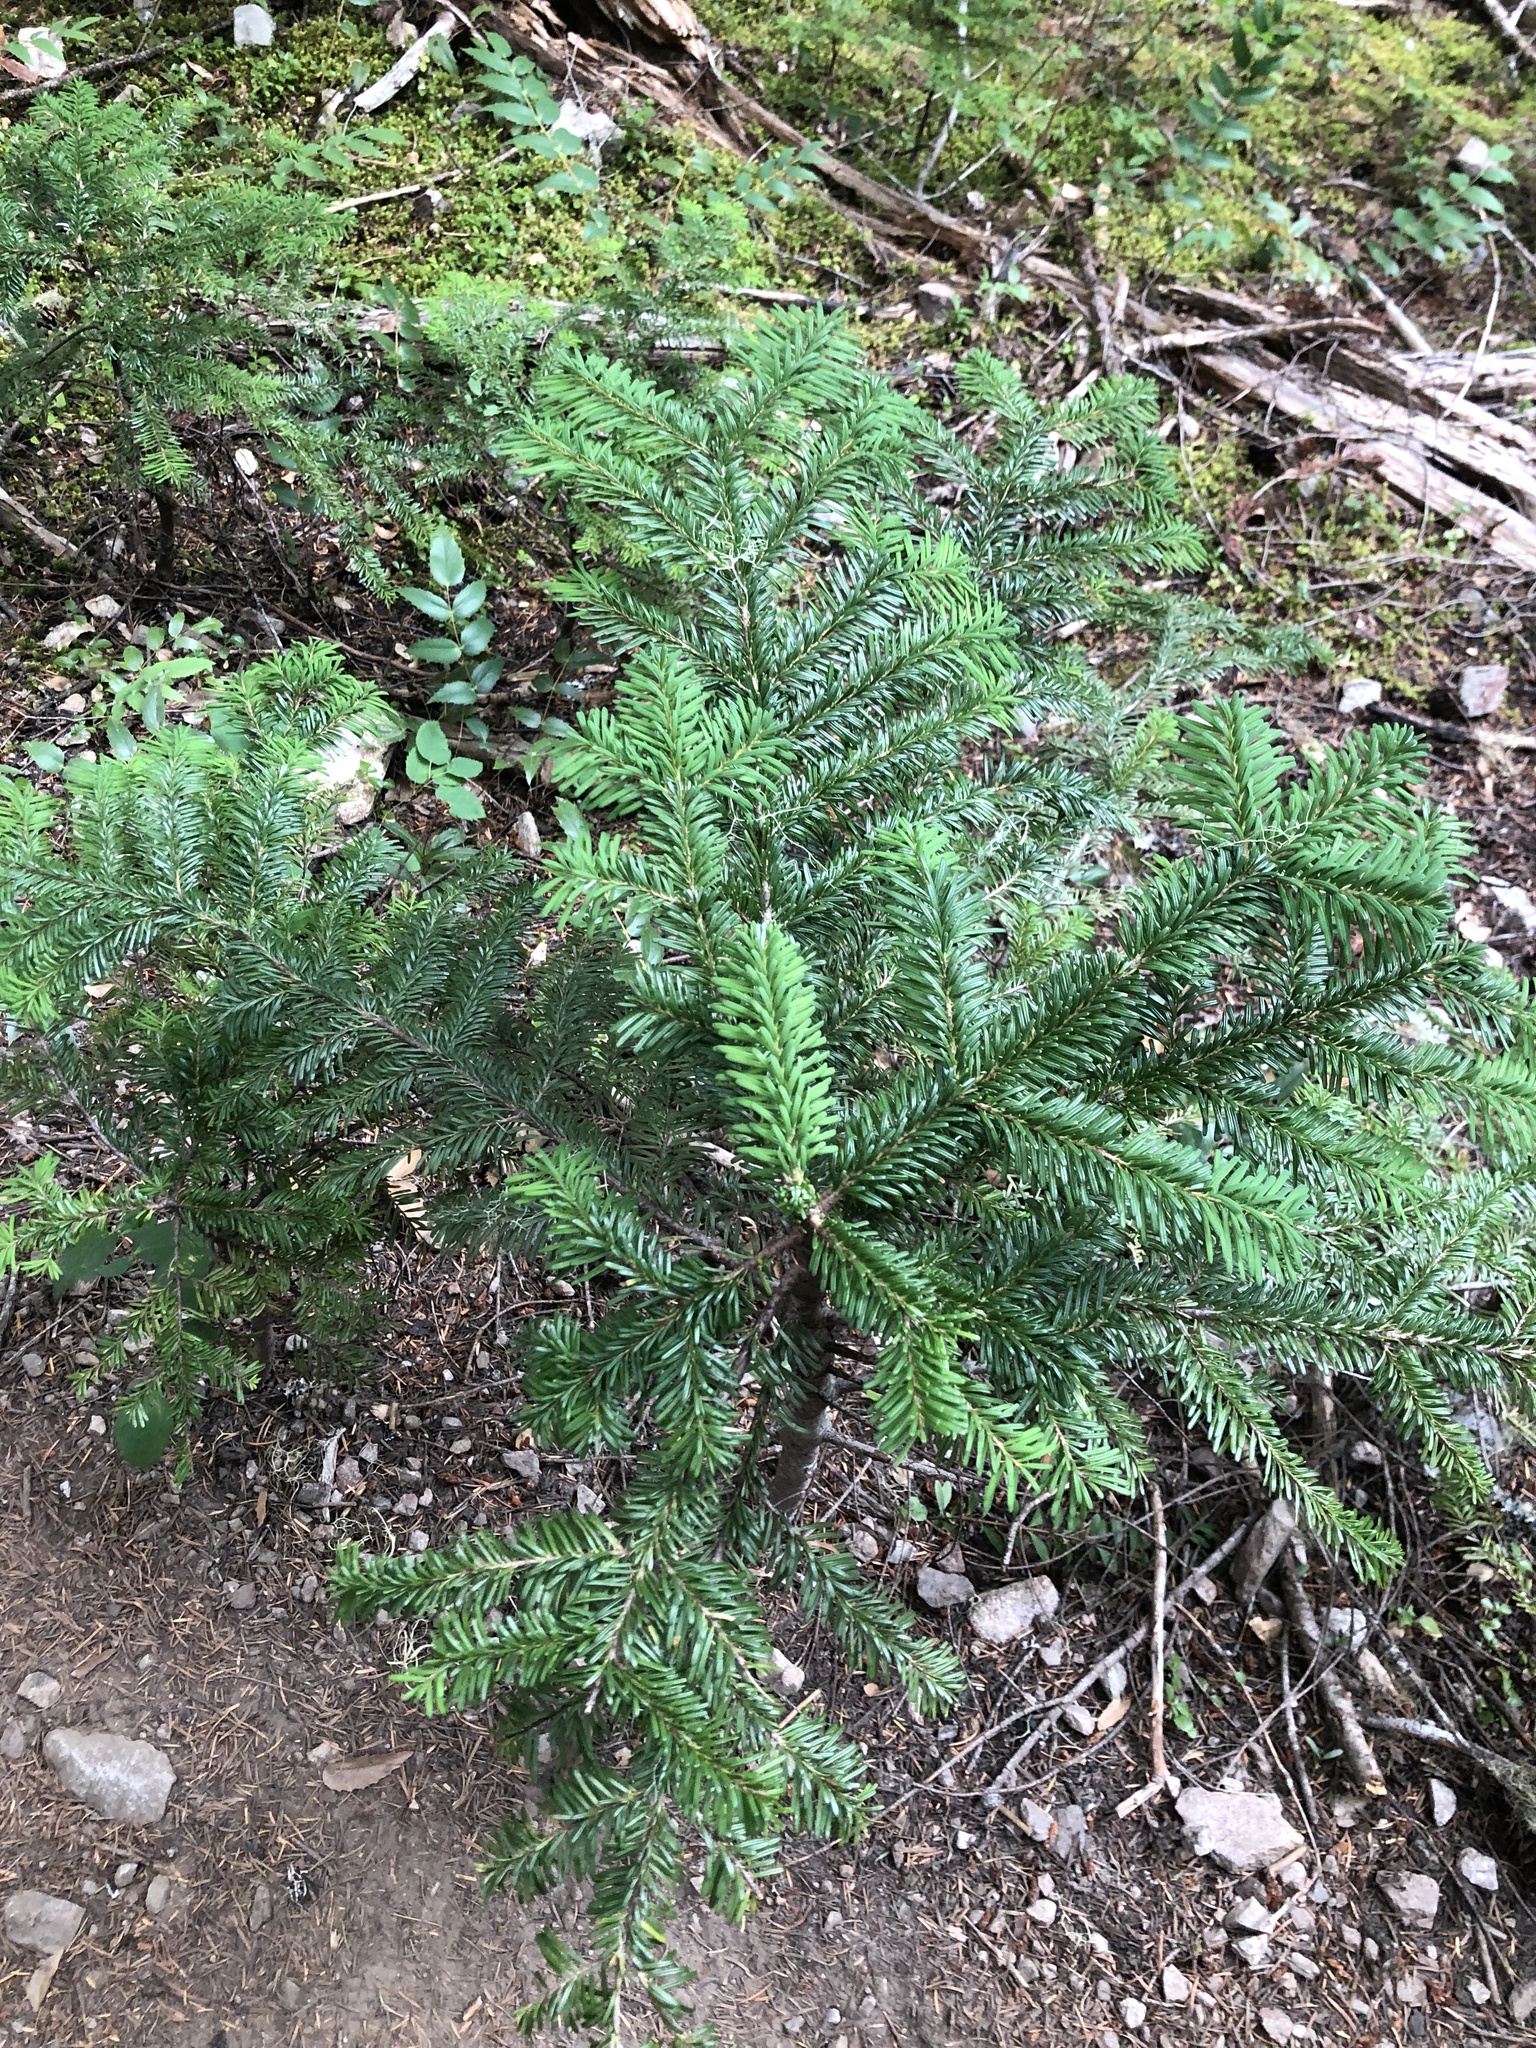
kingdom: Plantae
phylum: Tracheophyta
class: Pinopsida
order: Pinales
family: Pinaceae
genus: Abies
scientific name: Abies amabilis
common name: Pacific silver fir
